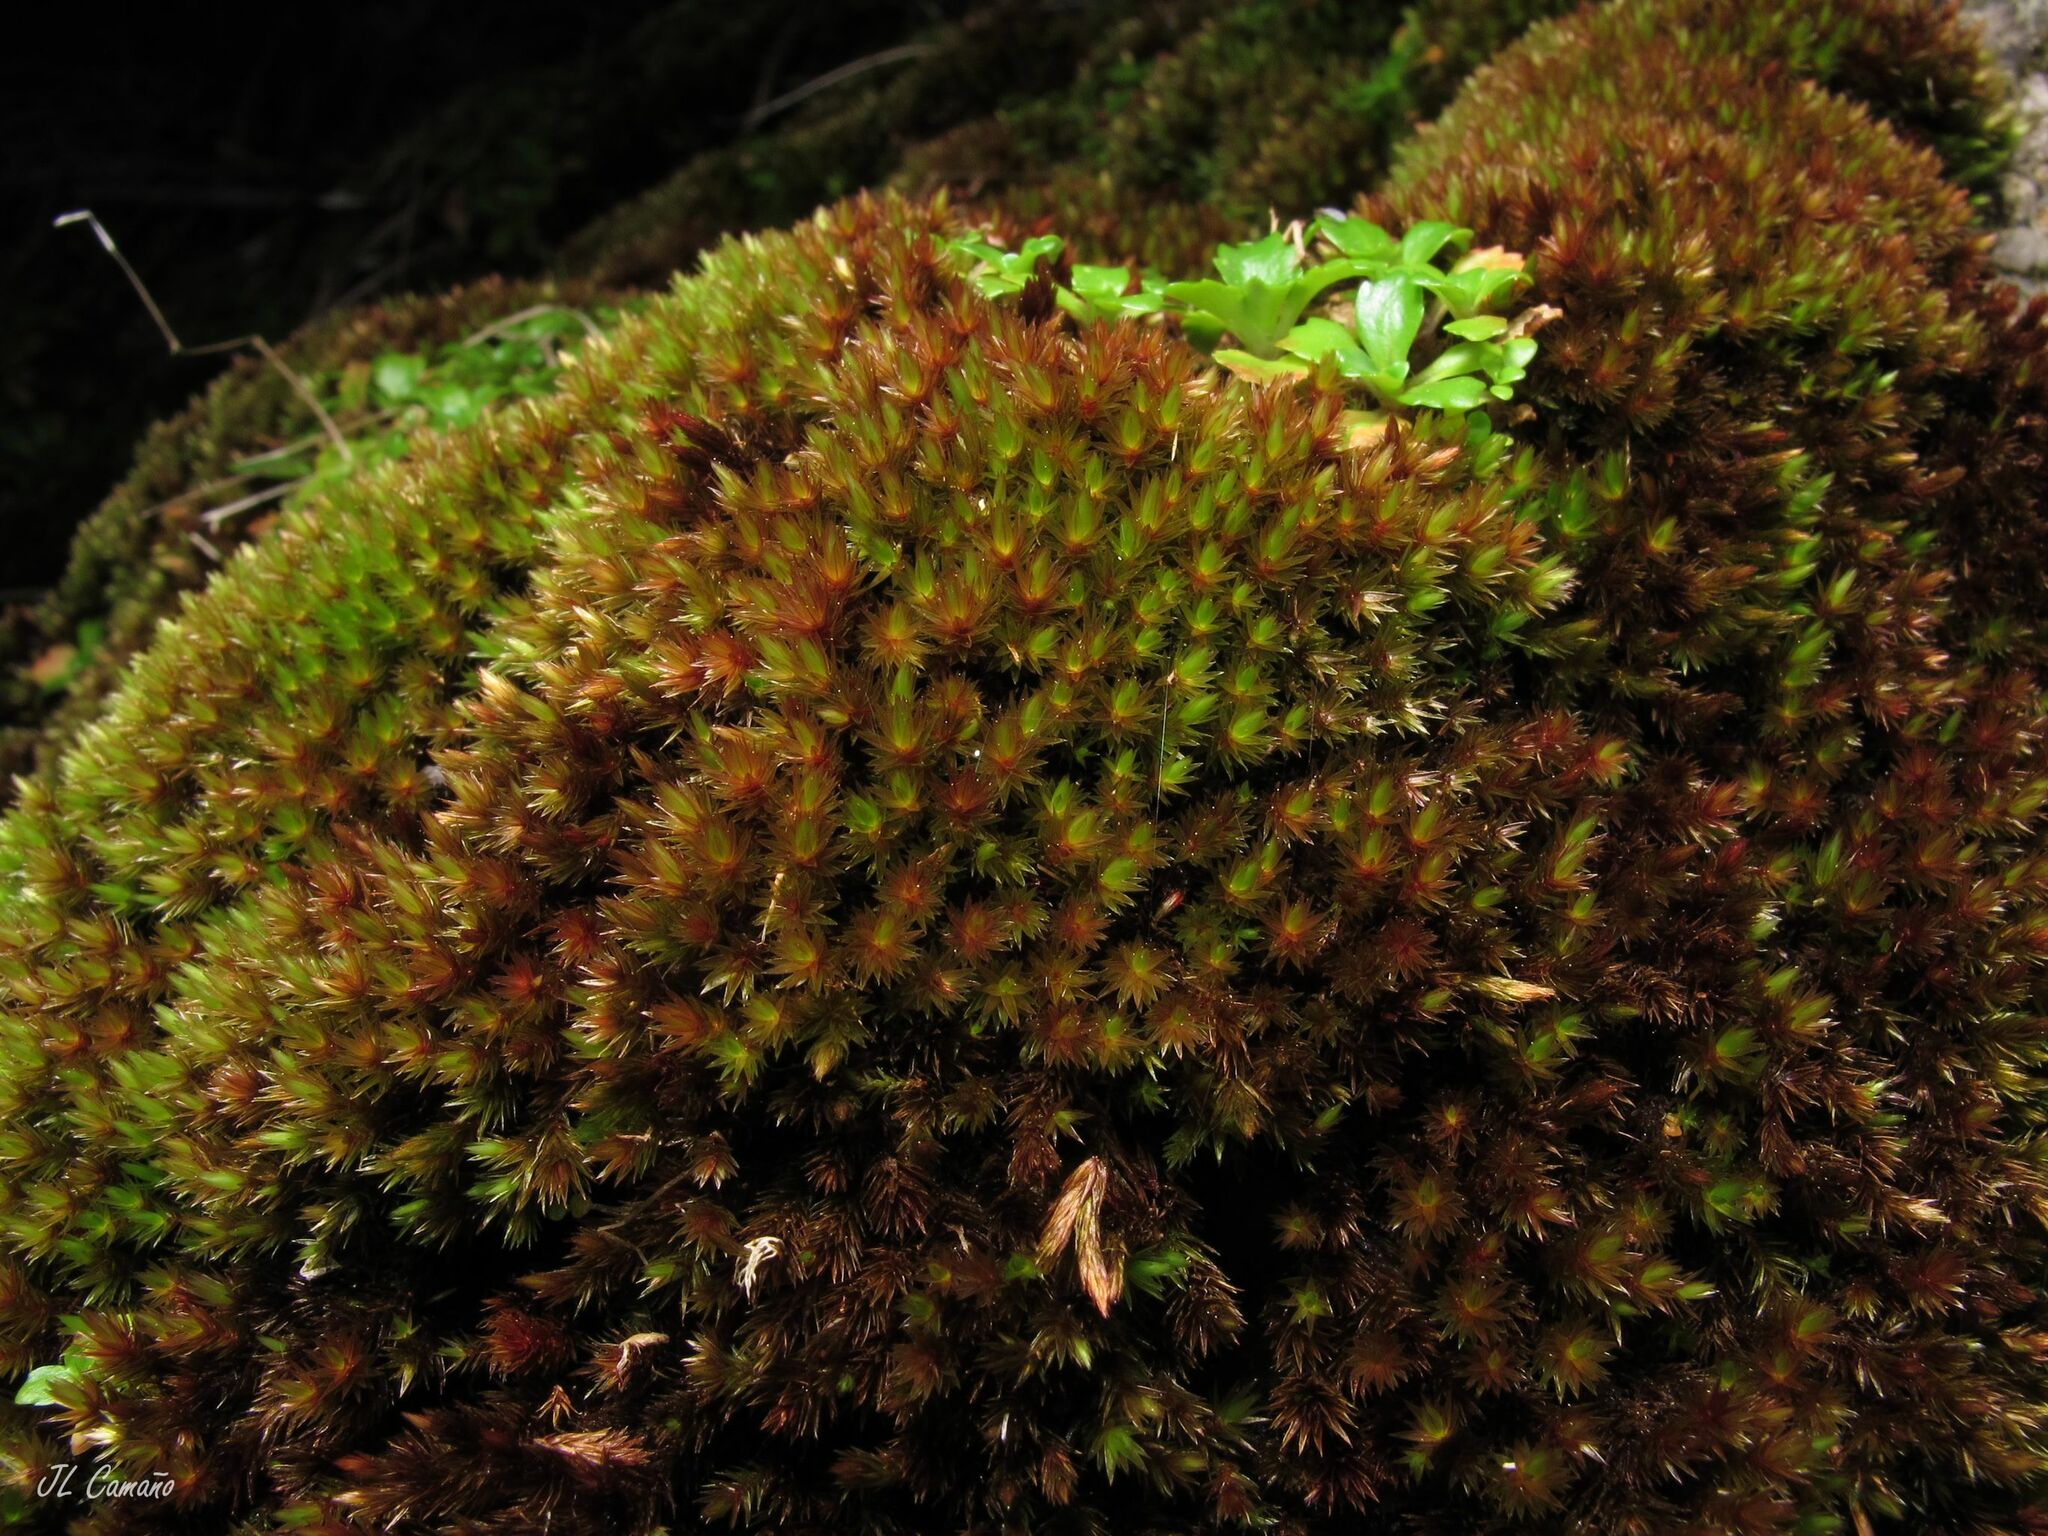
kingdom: Plantae
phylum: Bryophyta
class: Bryopsida
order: Bryales
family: Bryaceae
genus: Imbribryum
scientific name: Imbribryum alpinum
